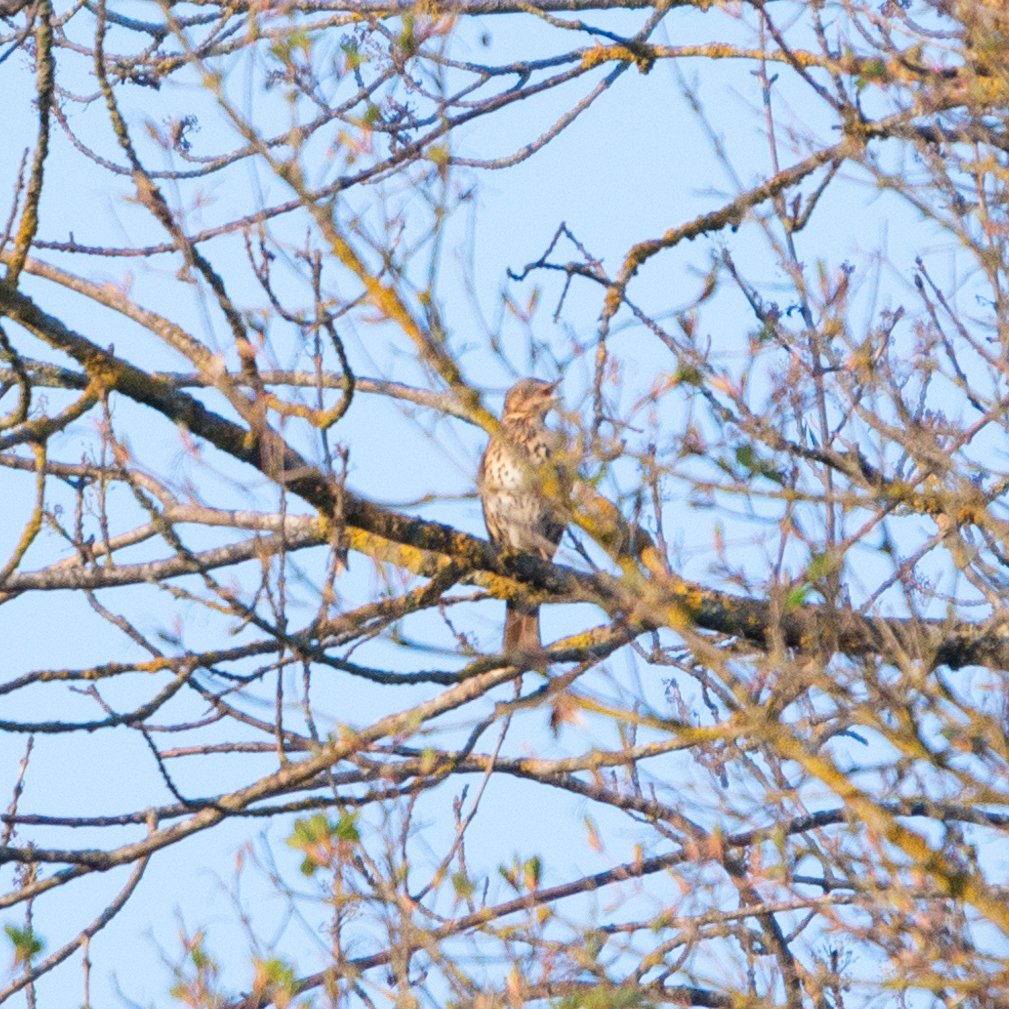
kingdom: Animalia
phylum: Chordata
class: Aves
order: Passeriformes
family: Turdidae
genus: Turdus
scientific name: Turdus philomelos
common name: Song thrush
